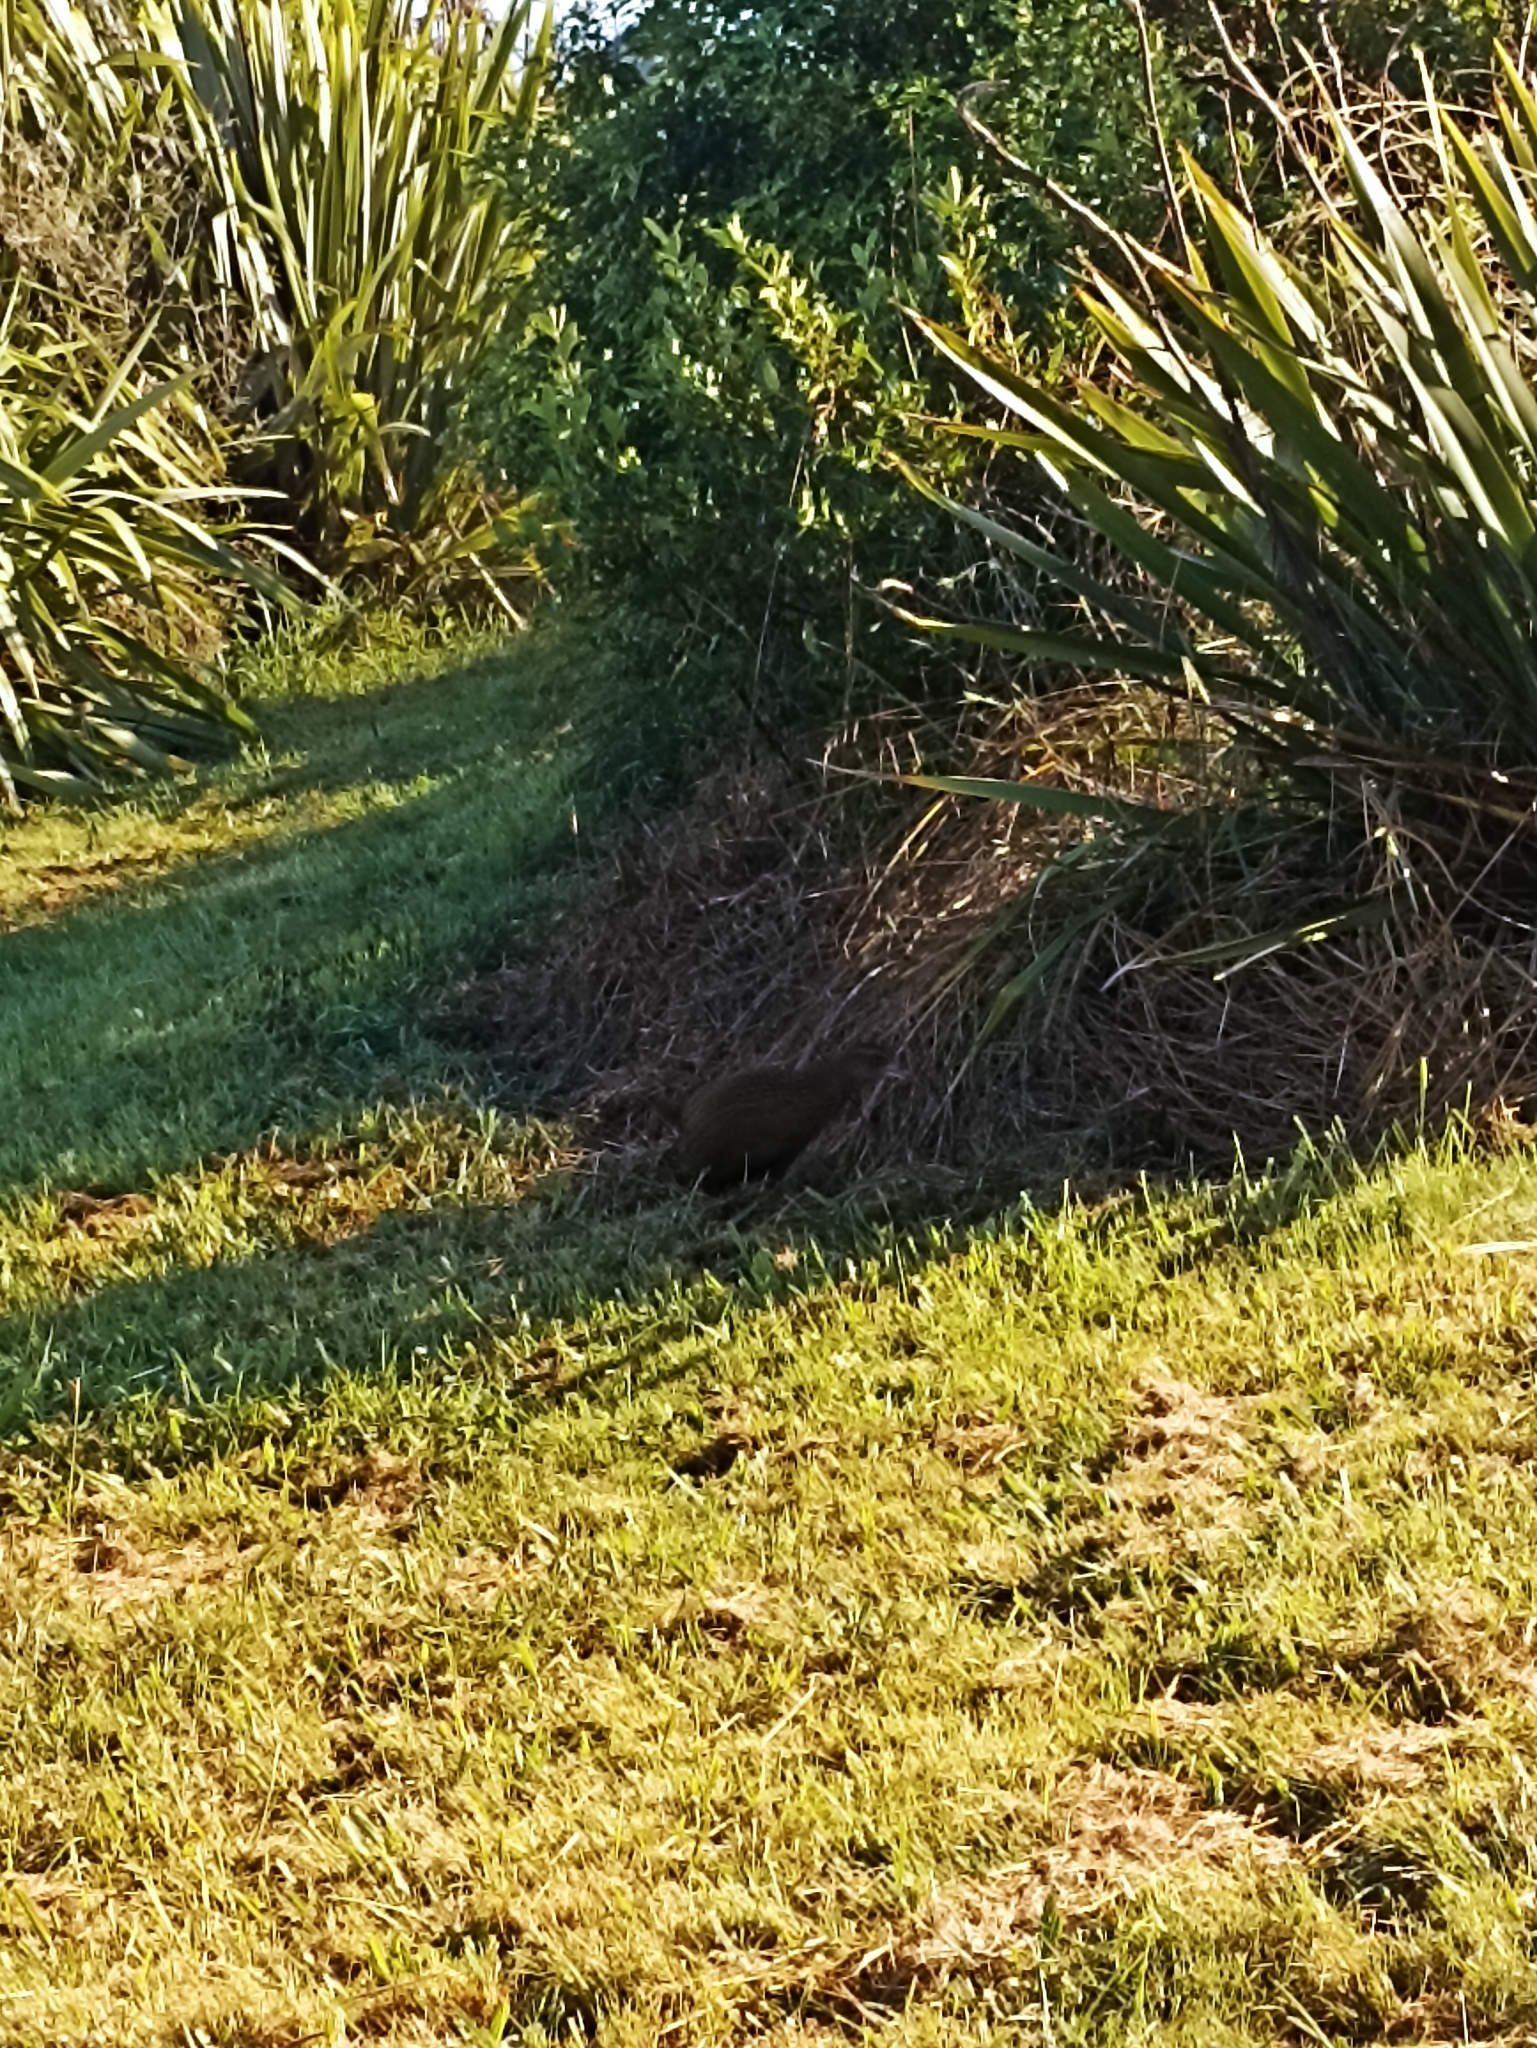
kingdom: Animalia
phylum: Chordata
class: Aves
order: Gruiformes
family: Rallidae
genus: Gallirallus
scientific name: Gallirallus australis
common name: Weka
